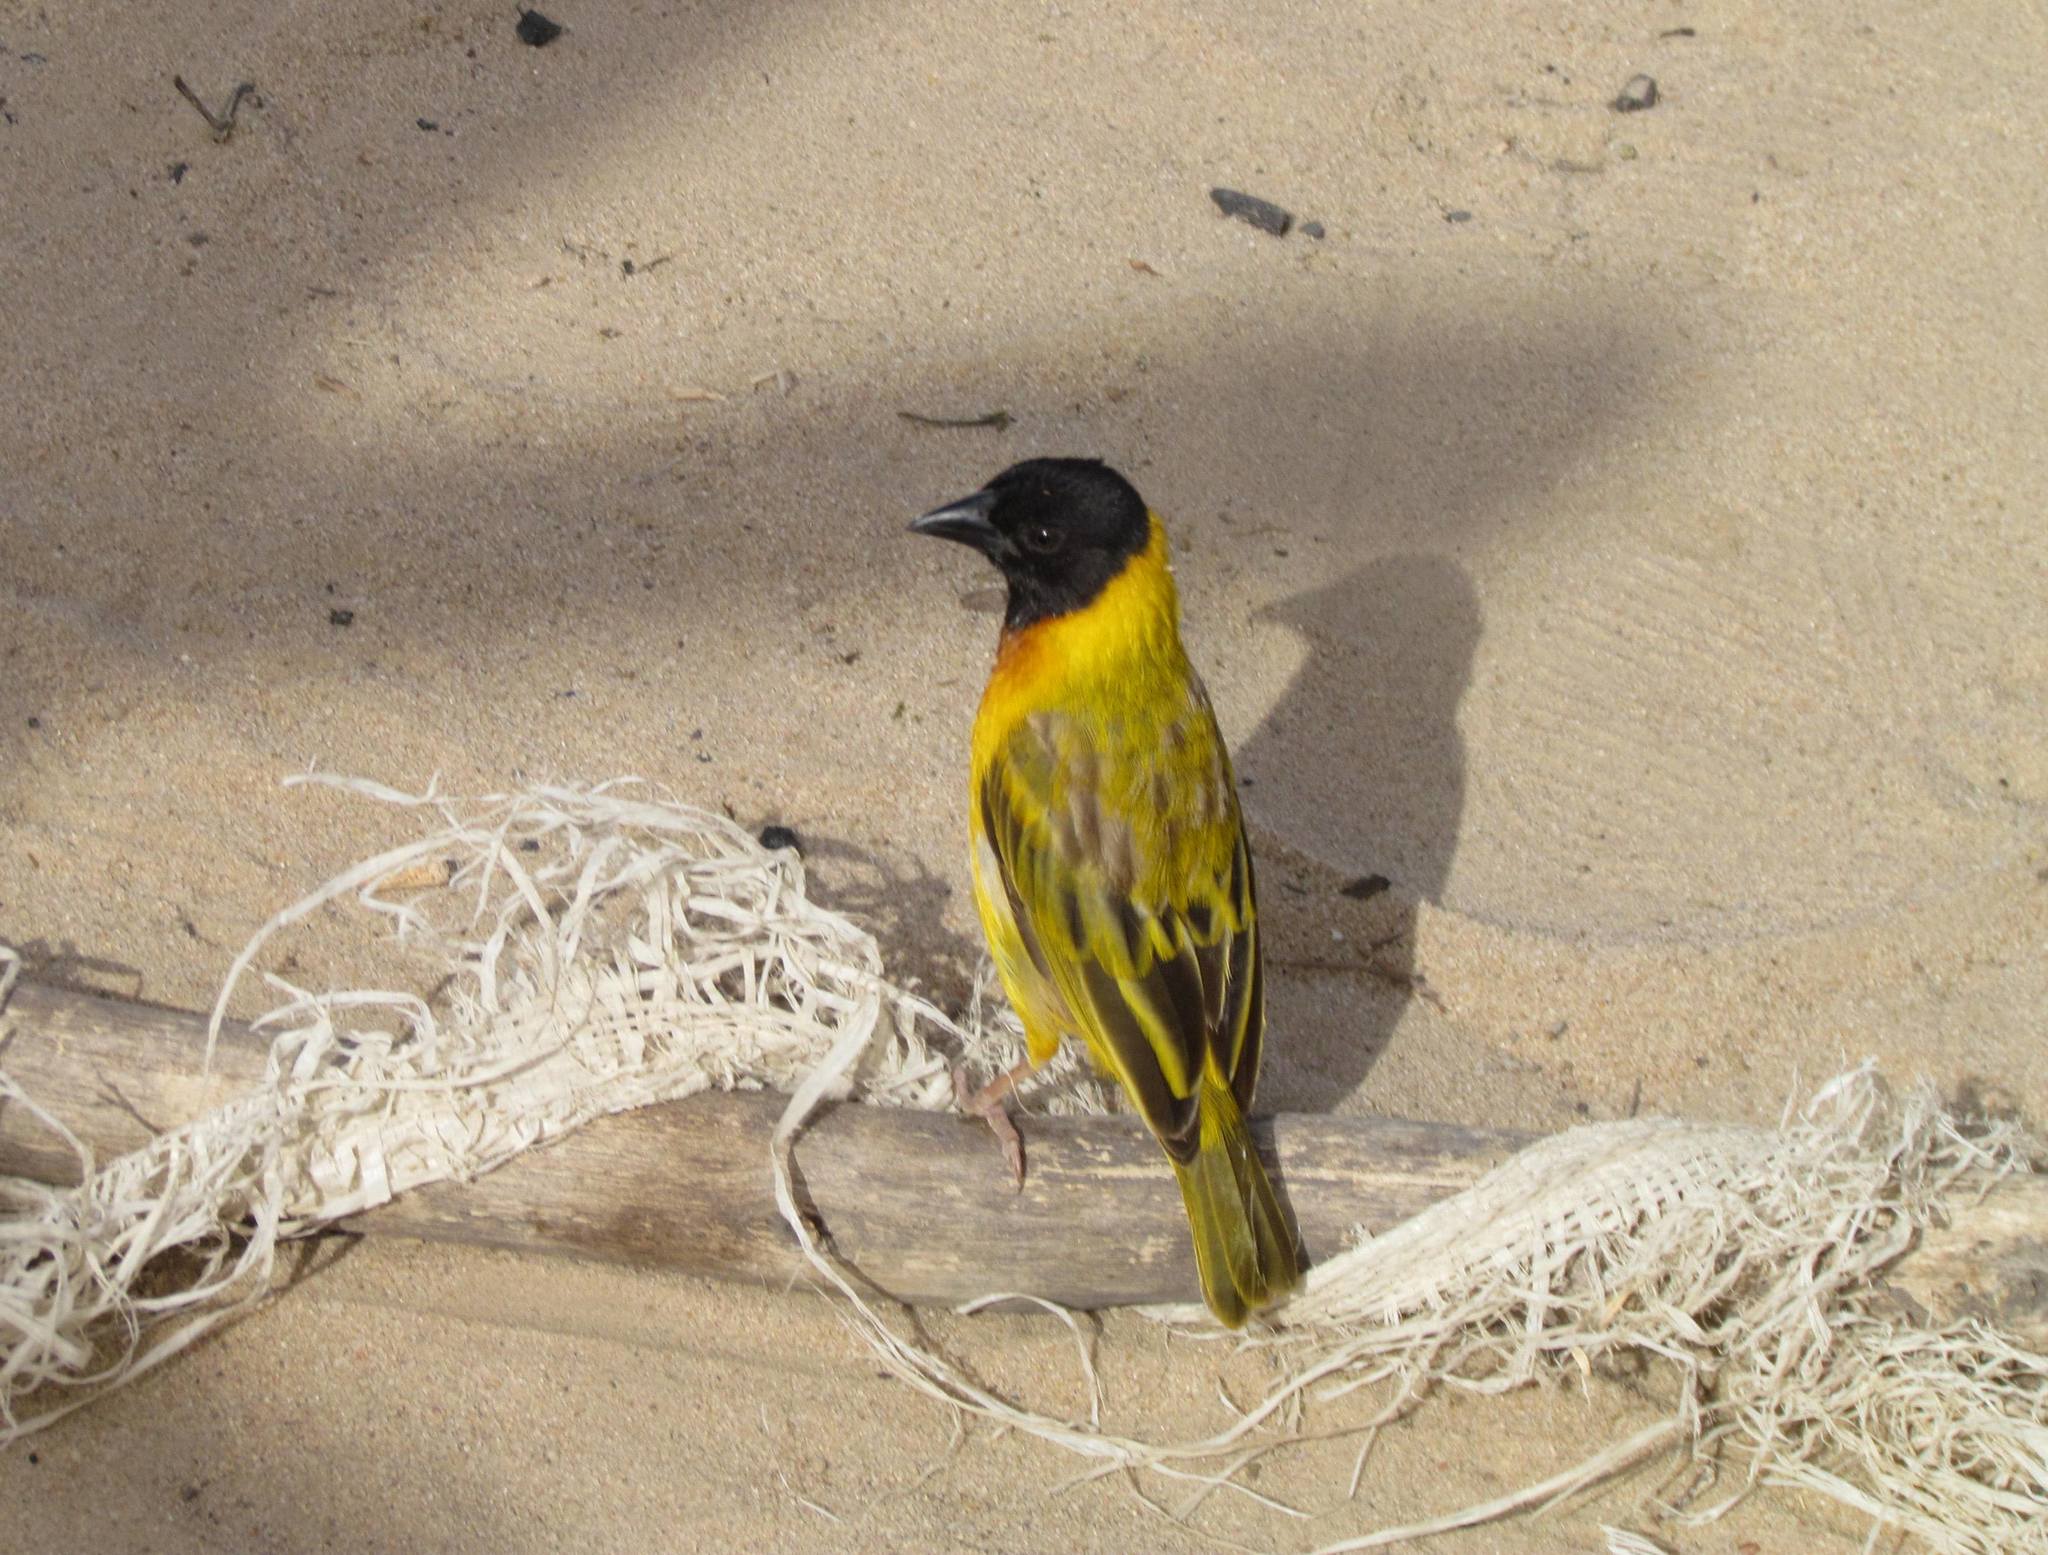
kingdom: Animalia
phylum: Chordata
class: Aves
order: Passeriformes
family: Ploceidae
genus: Ploceus
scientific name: Ploceus melanocephalus
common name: Black-headed weaver
